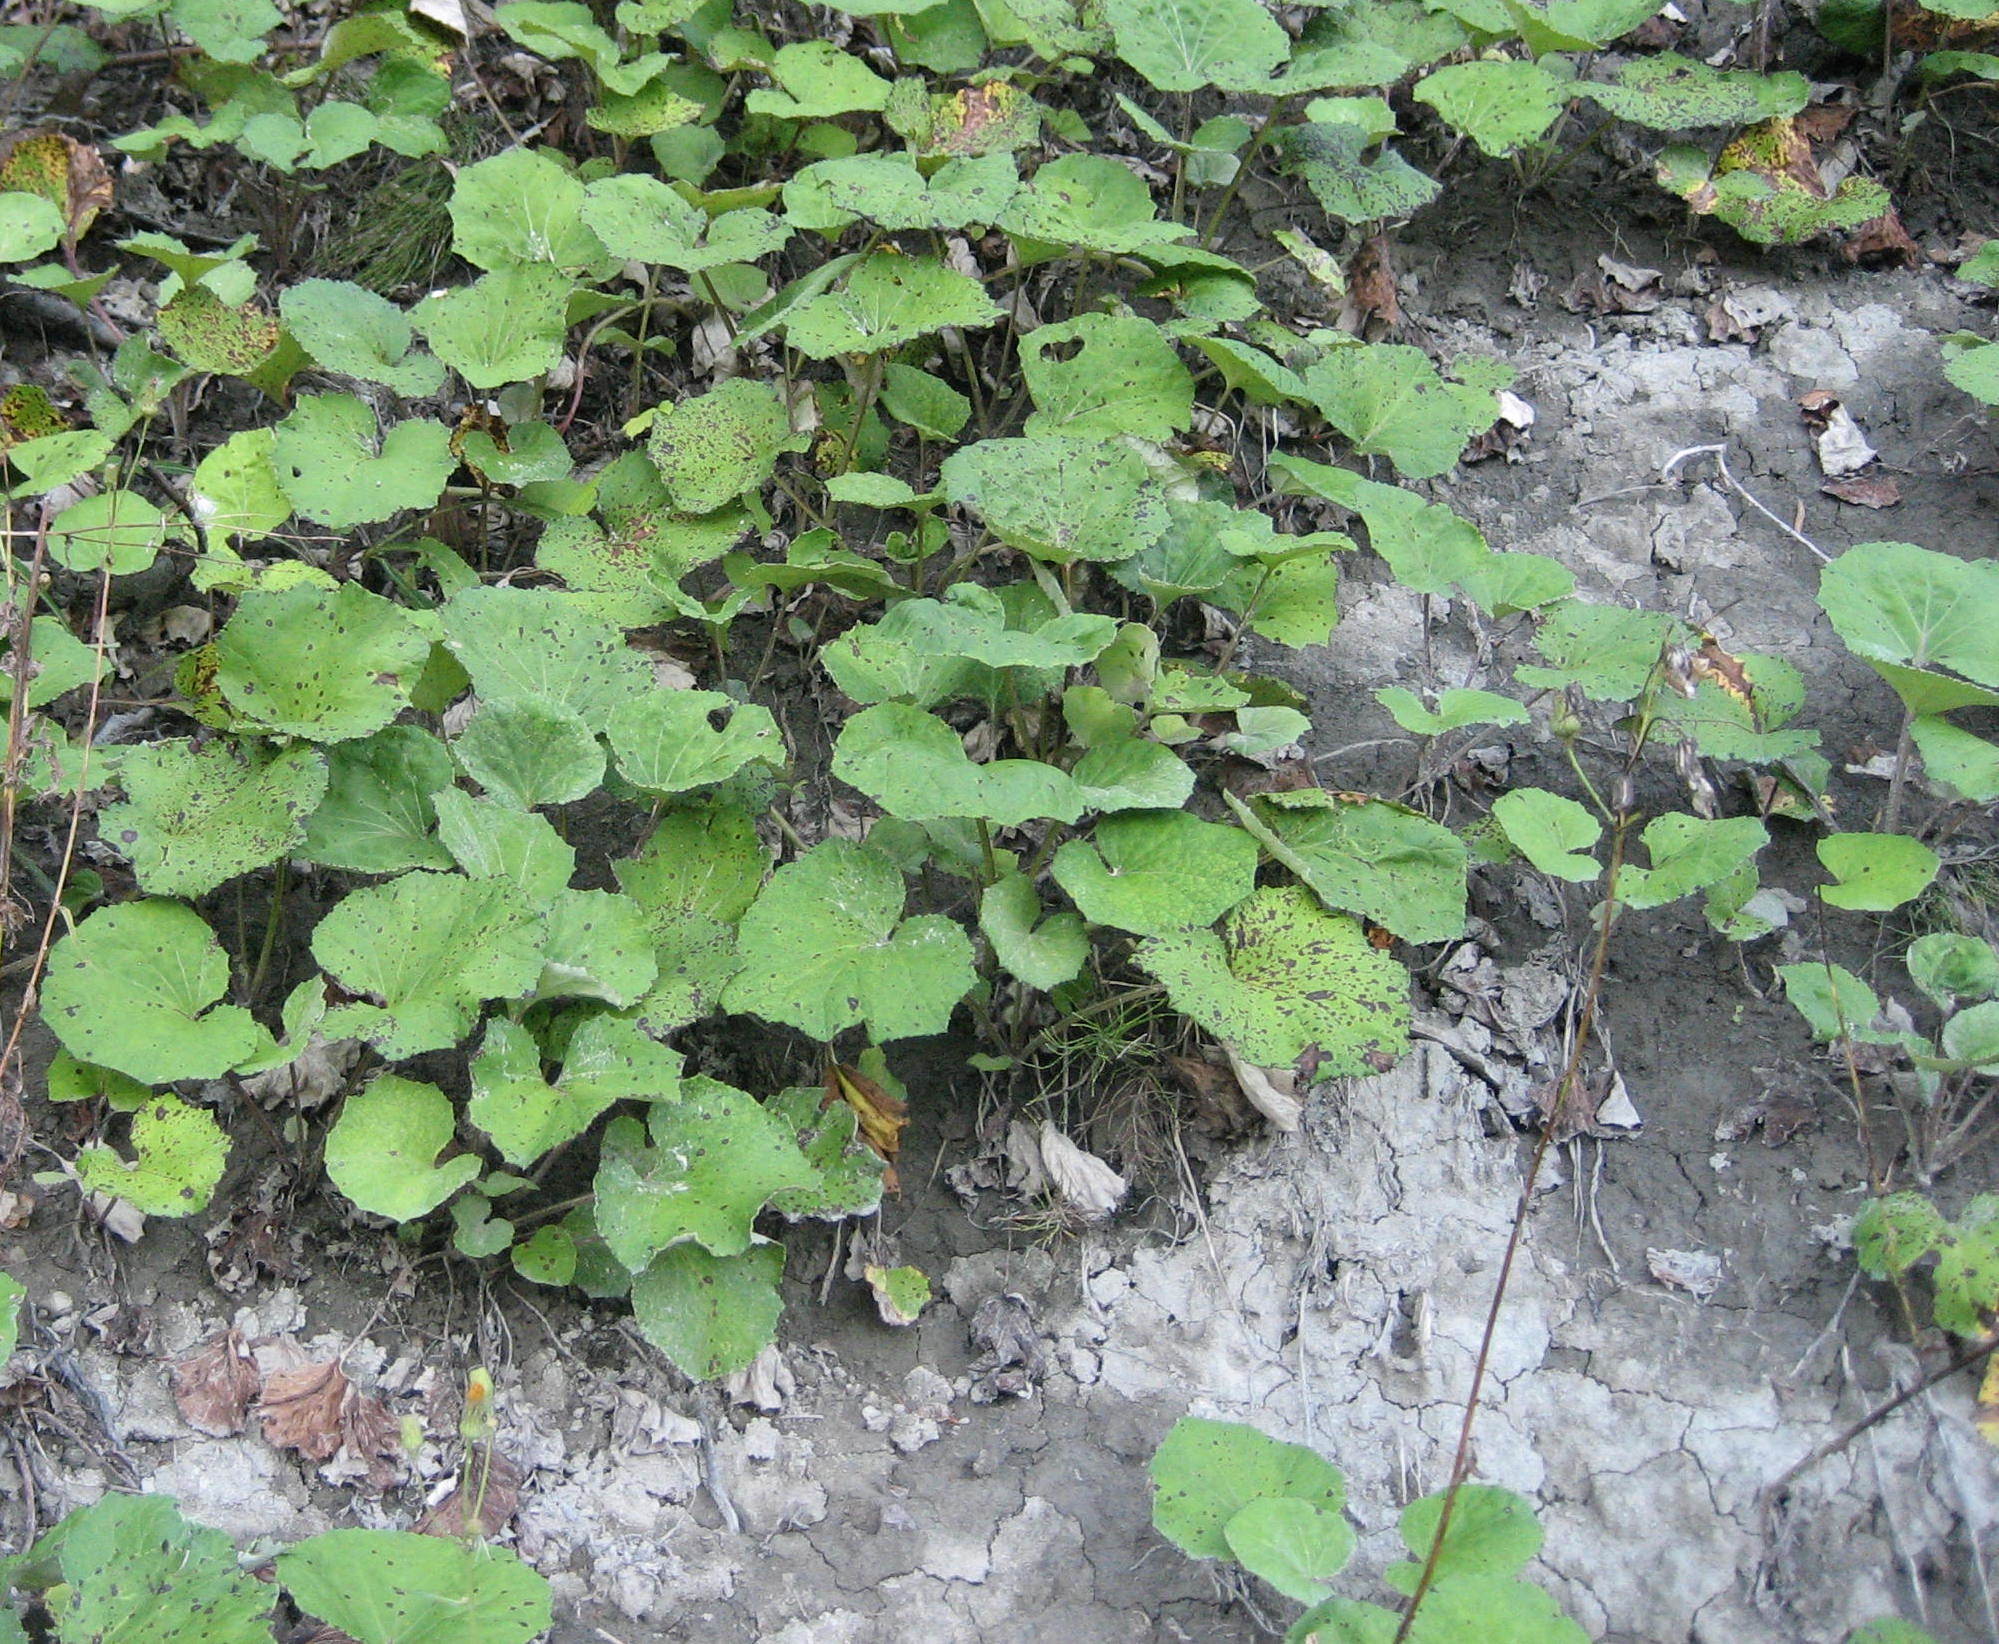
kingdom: Plantae
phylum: Tracheophyta
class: Magnoliopsida
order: Asterales
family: Asteraceae
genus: Tussilago
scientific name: Tussilago farfara
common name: Coltsfoot
